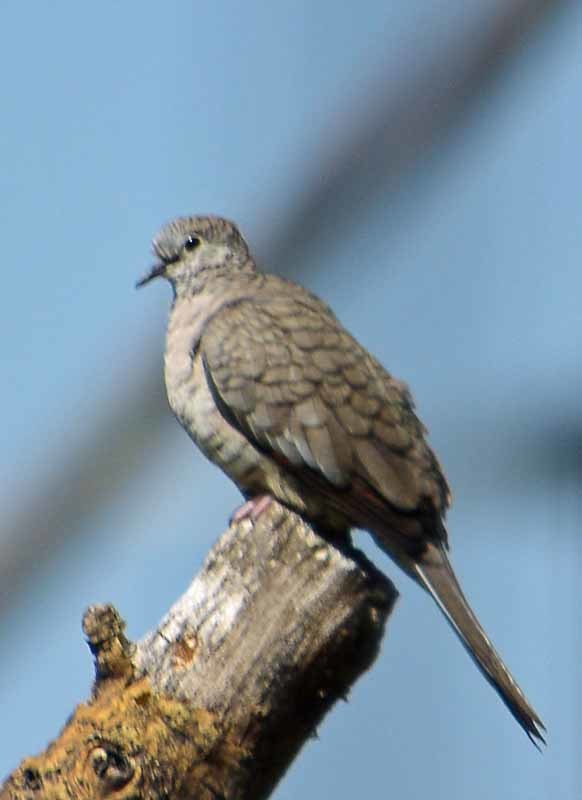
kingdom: Animalia
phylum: Chordata
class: Aves
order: Columbiformes
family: Columbidae
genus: Columbina
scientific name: Columbina inca
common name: Inca dove
